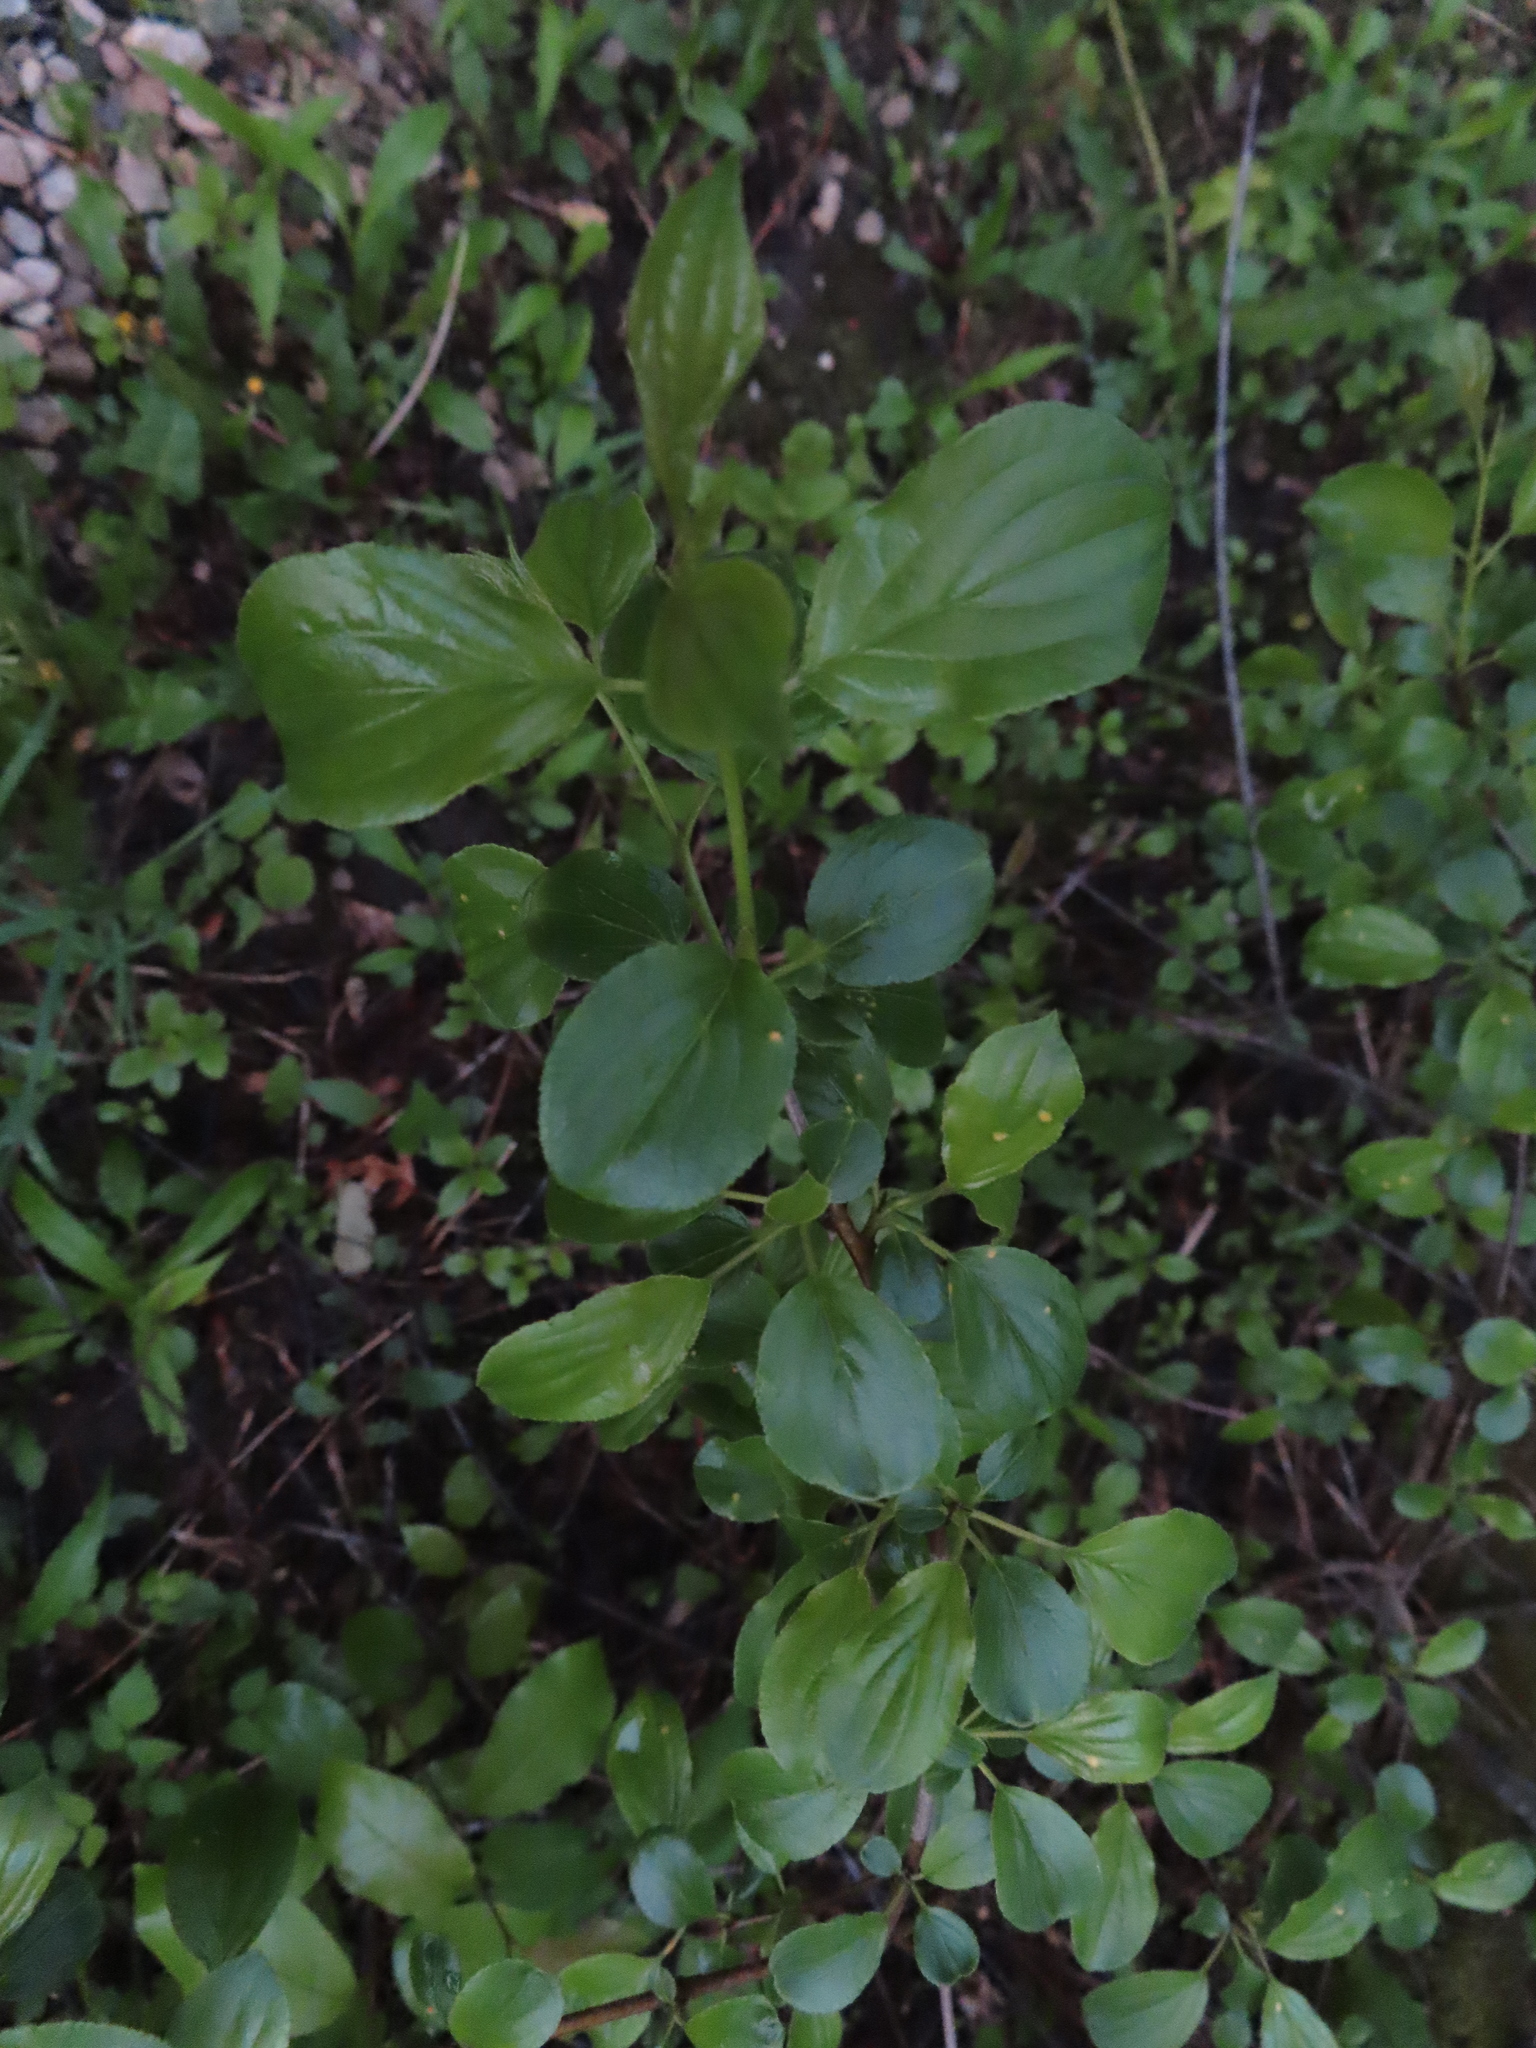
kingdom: Plantae
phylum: Tracheophyta
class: Magnoliopsida
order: Rosales
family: Rhamnaceae
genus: Rhamnus
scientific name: Rhamnus cathartica
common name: Common buckthorn
